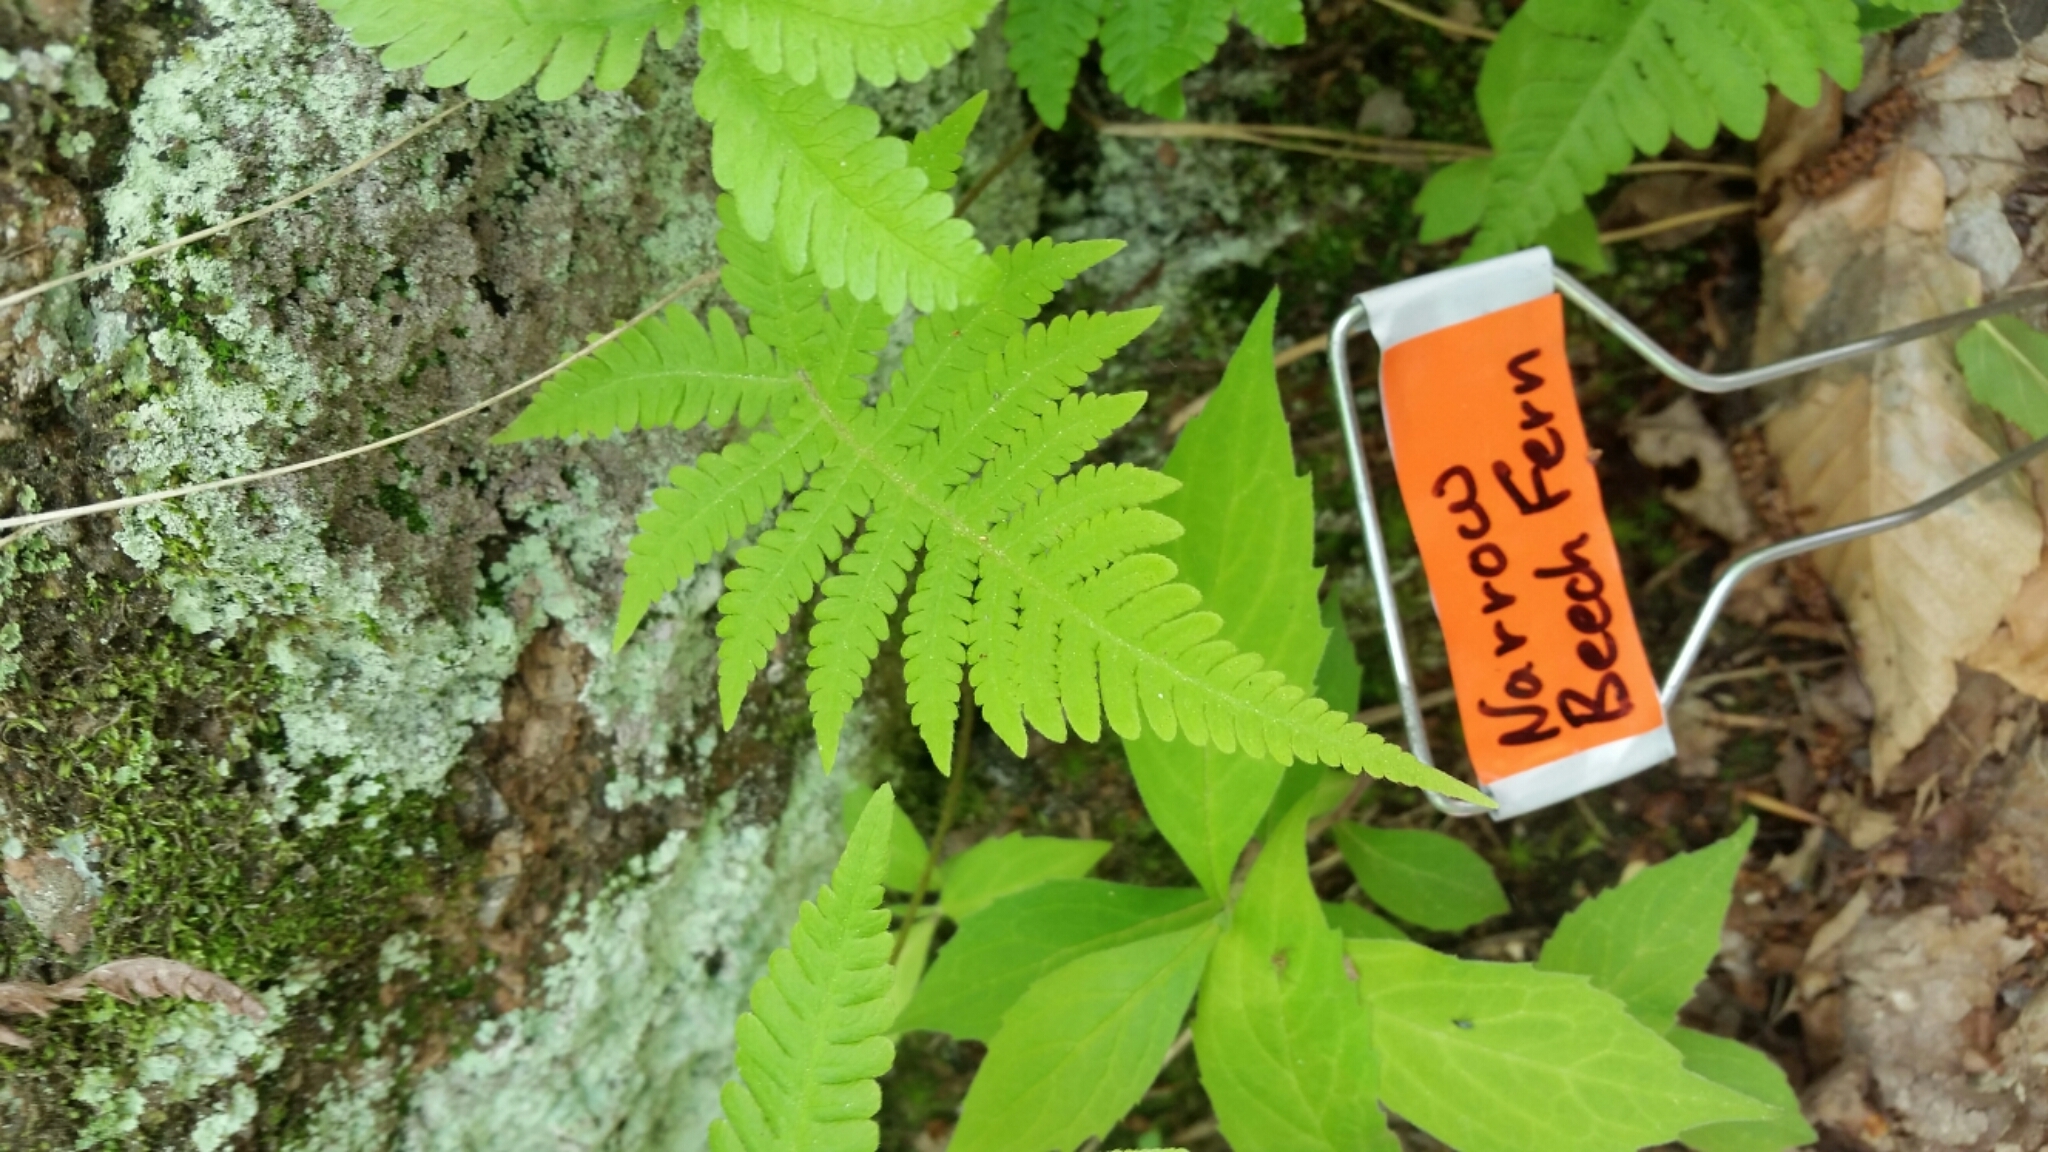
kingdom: Plantae
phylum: Tracheophyta
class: Polypodiopsida
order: Polypodiales
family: Thelypteridaceae
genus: Phegopteris
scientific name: Phegopteris connectilis
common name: Beech fern
